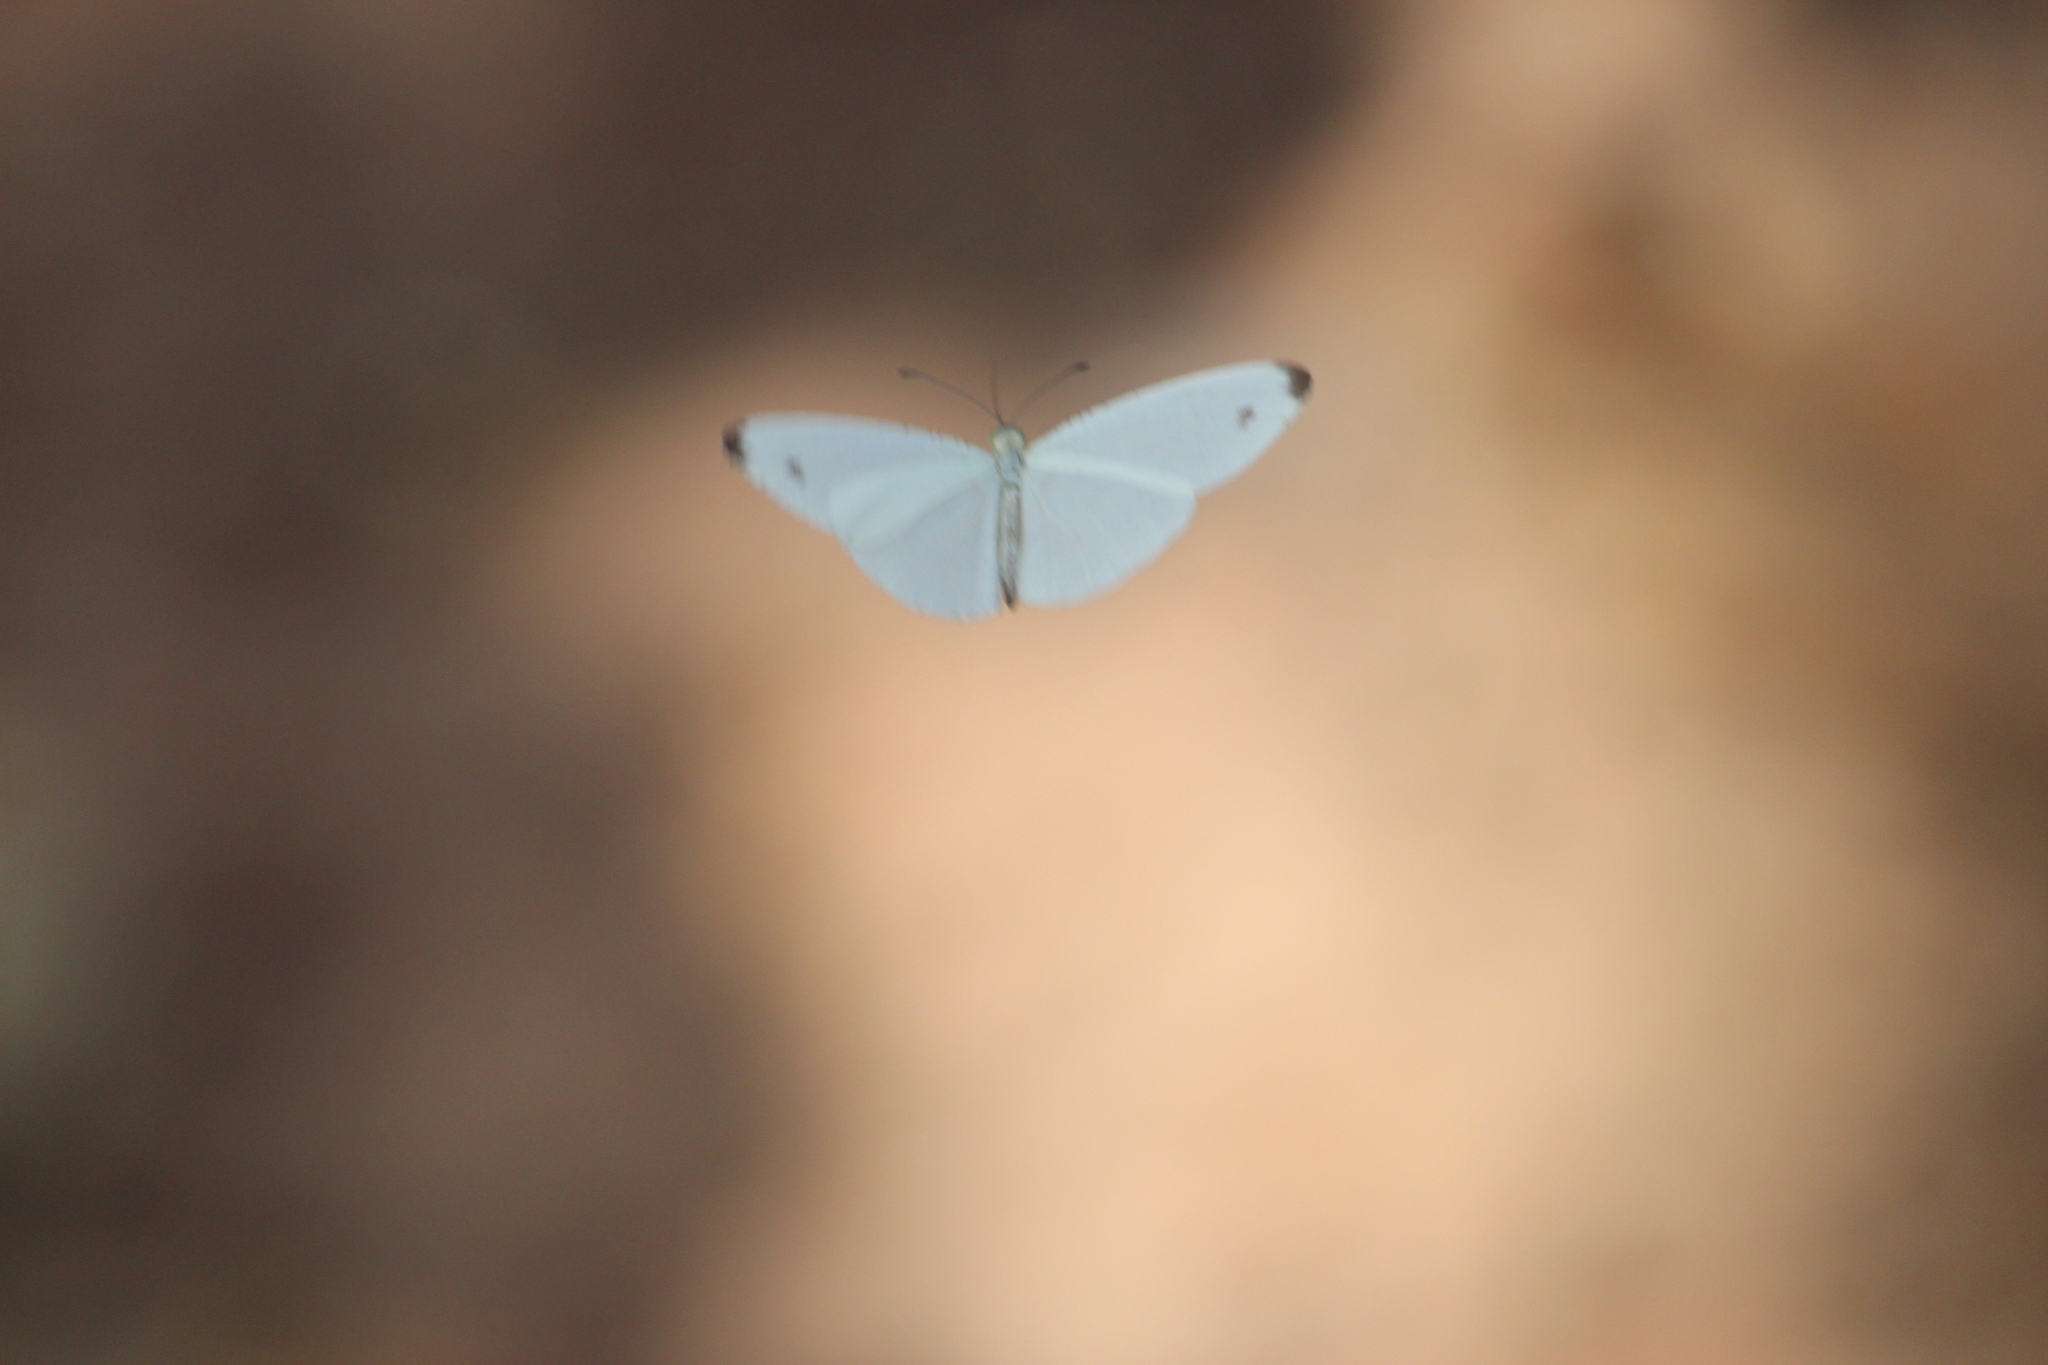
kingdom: Animalia
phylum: Arthropoda
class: Insecta
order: Lepidoptera
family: Pieridae
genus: Leptosia
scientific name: Leptosia alcesta
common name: African wood white
